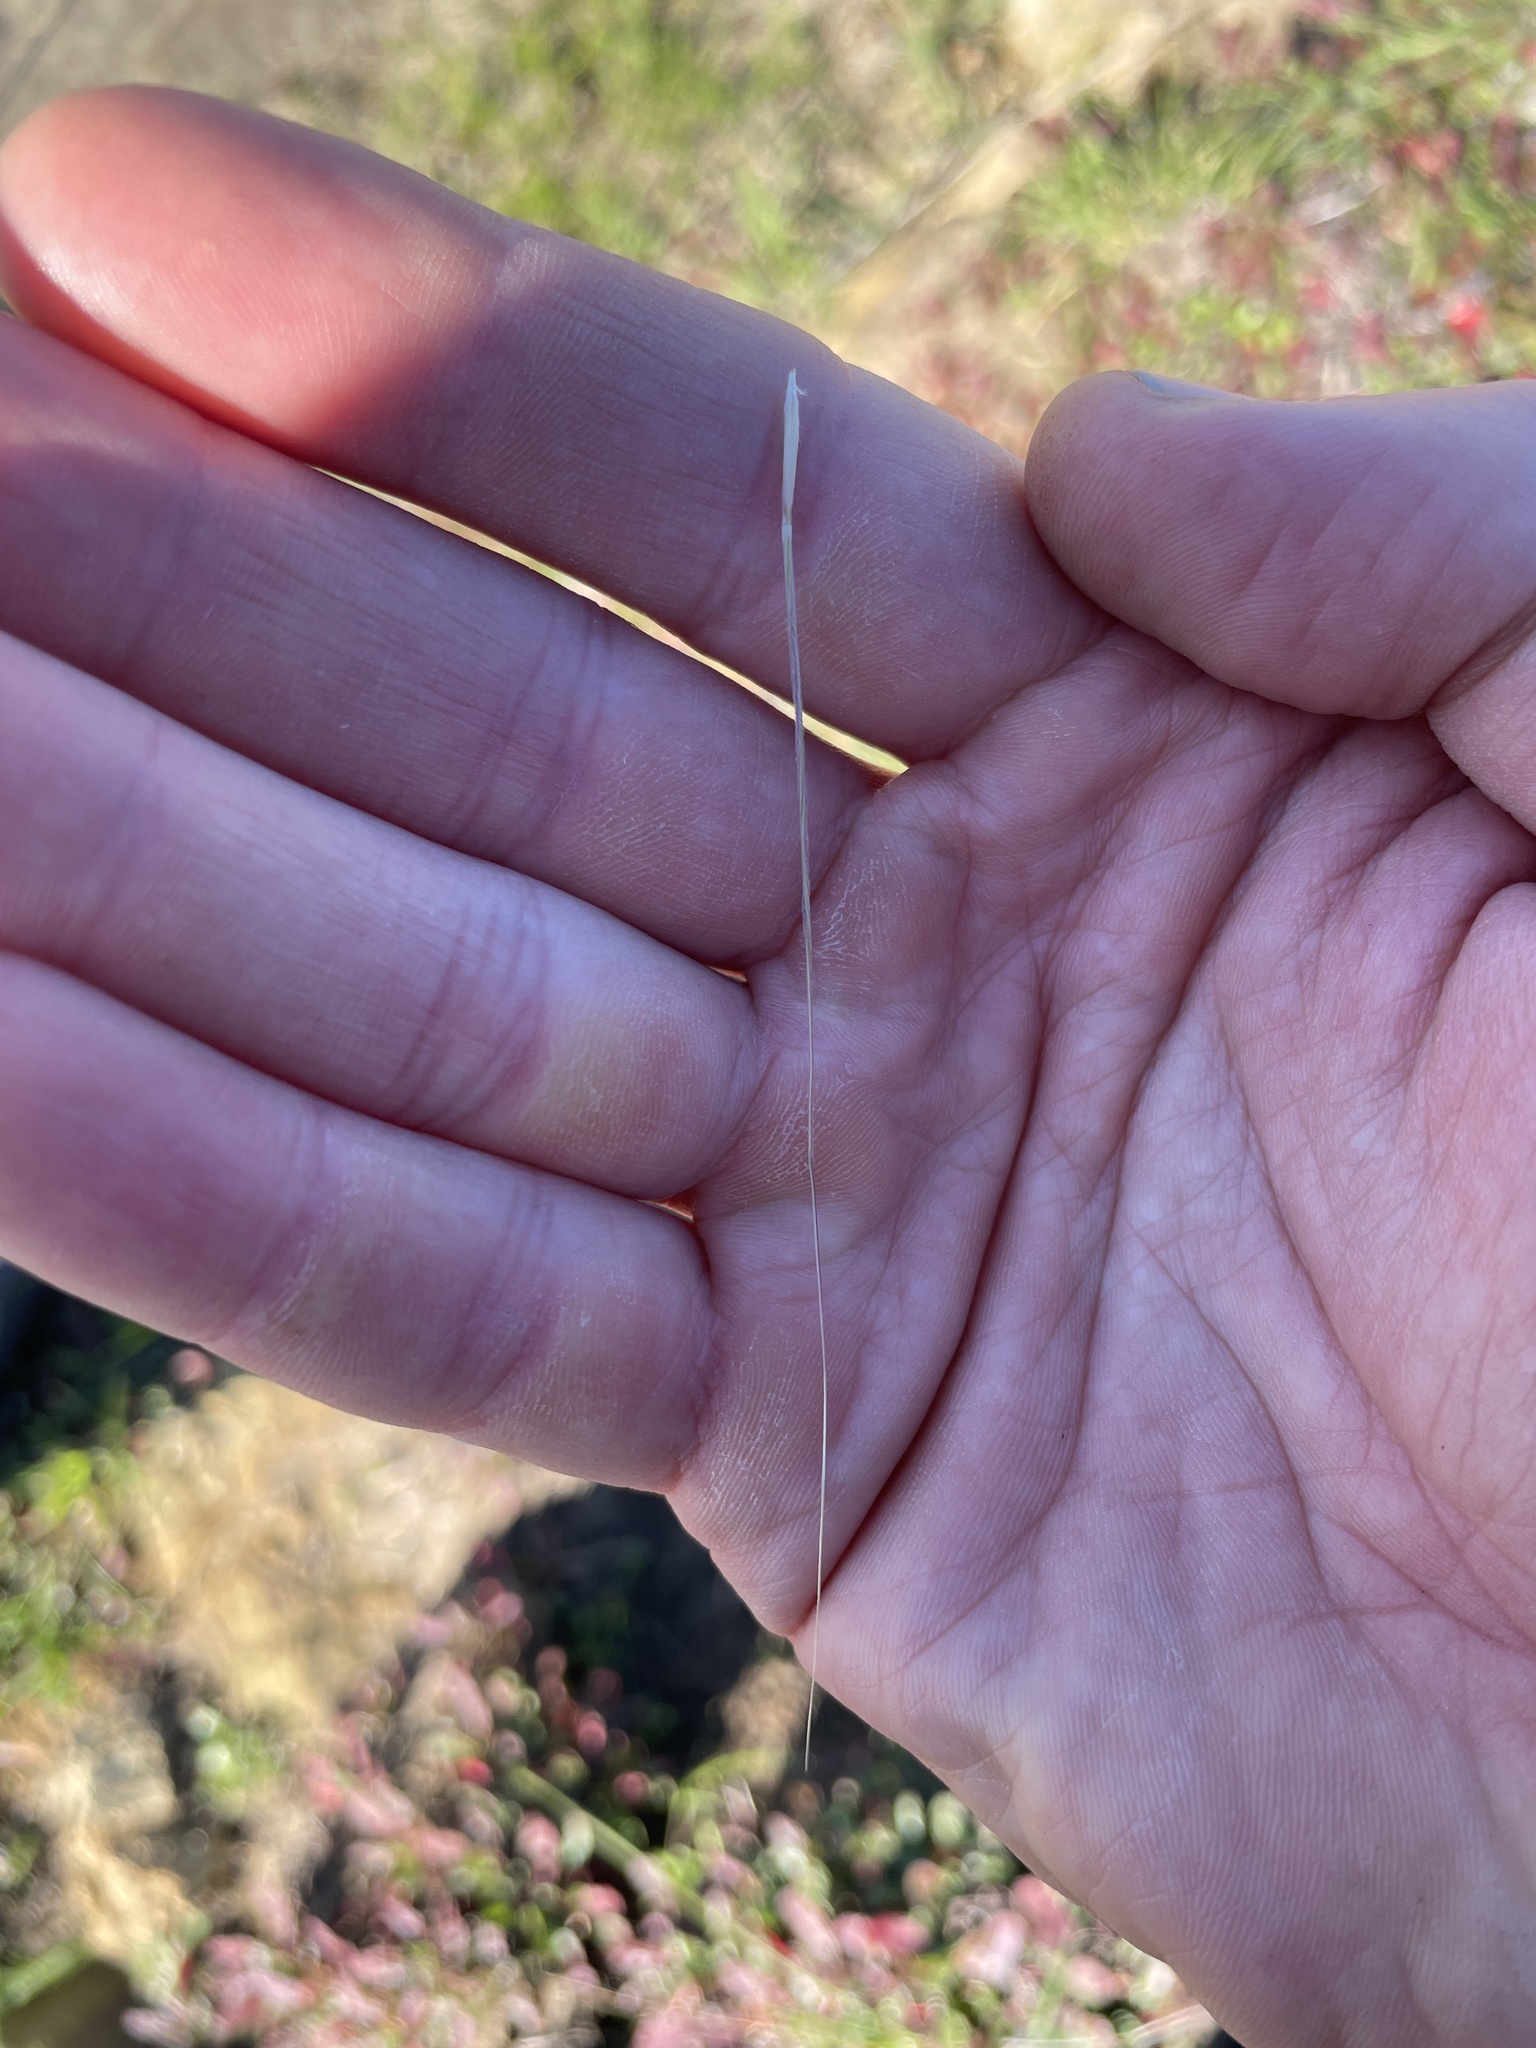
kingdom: Plantae
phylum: Tracheophyta
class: Liliopsida
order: Poales
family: Poaceae
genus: Nassella
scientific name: Nassella pulchra
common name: Purple needlegrass
